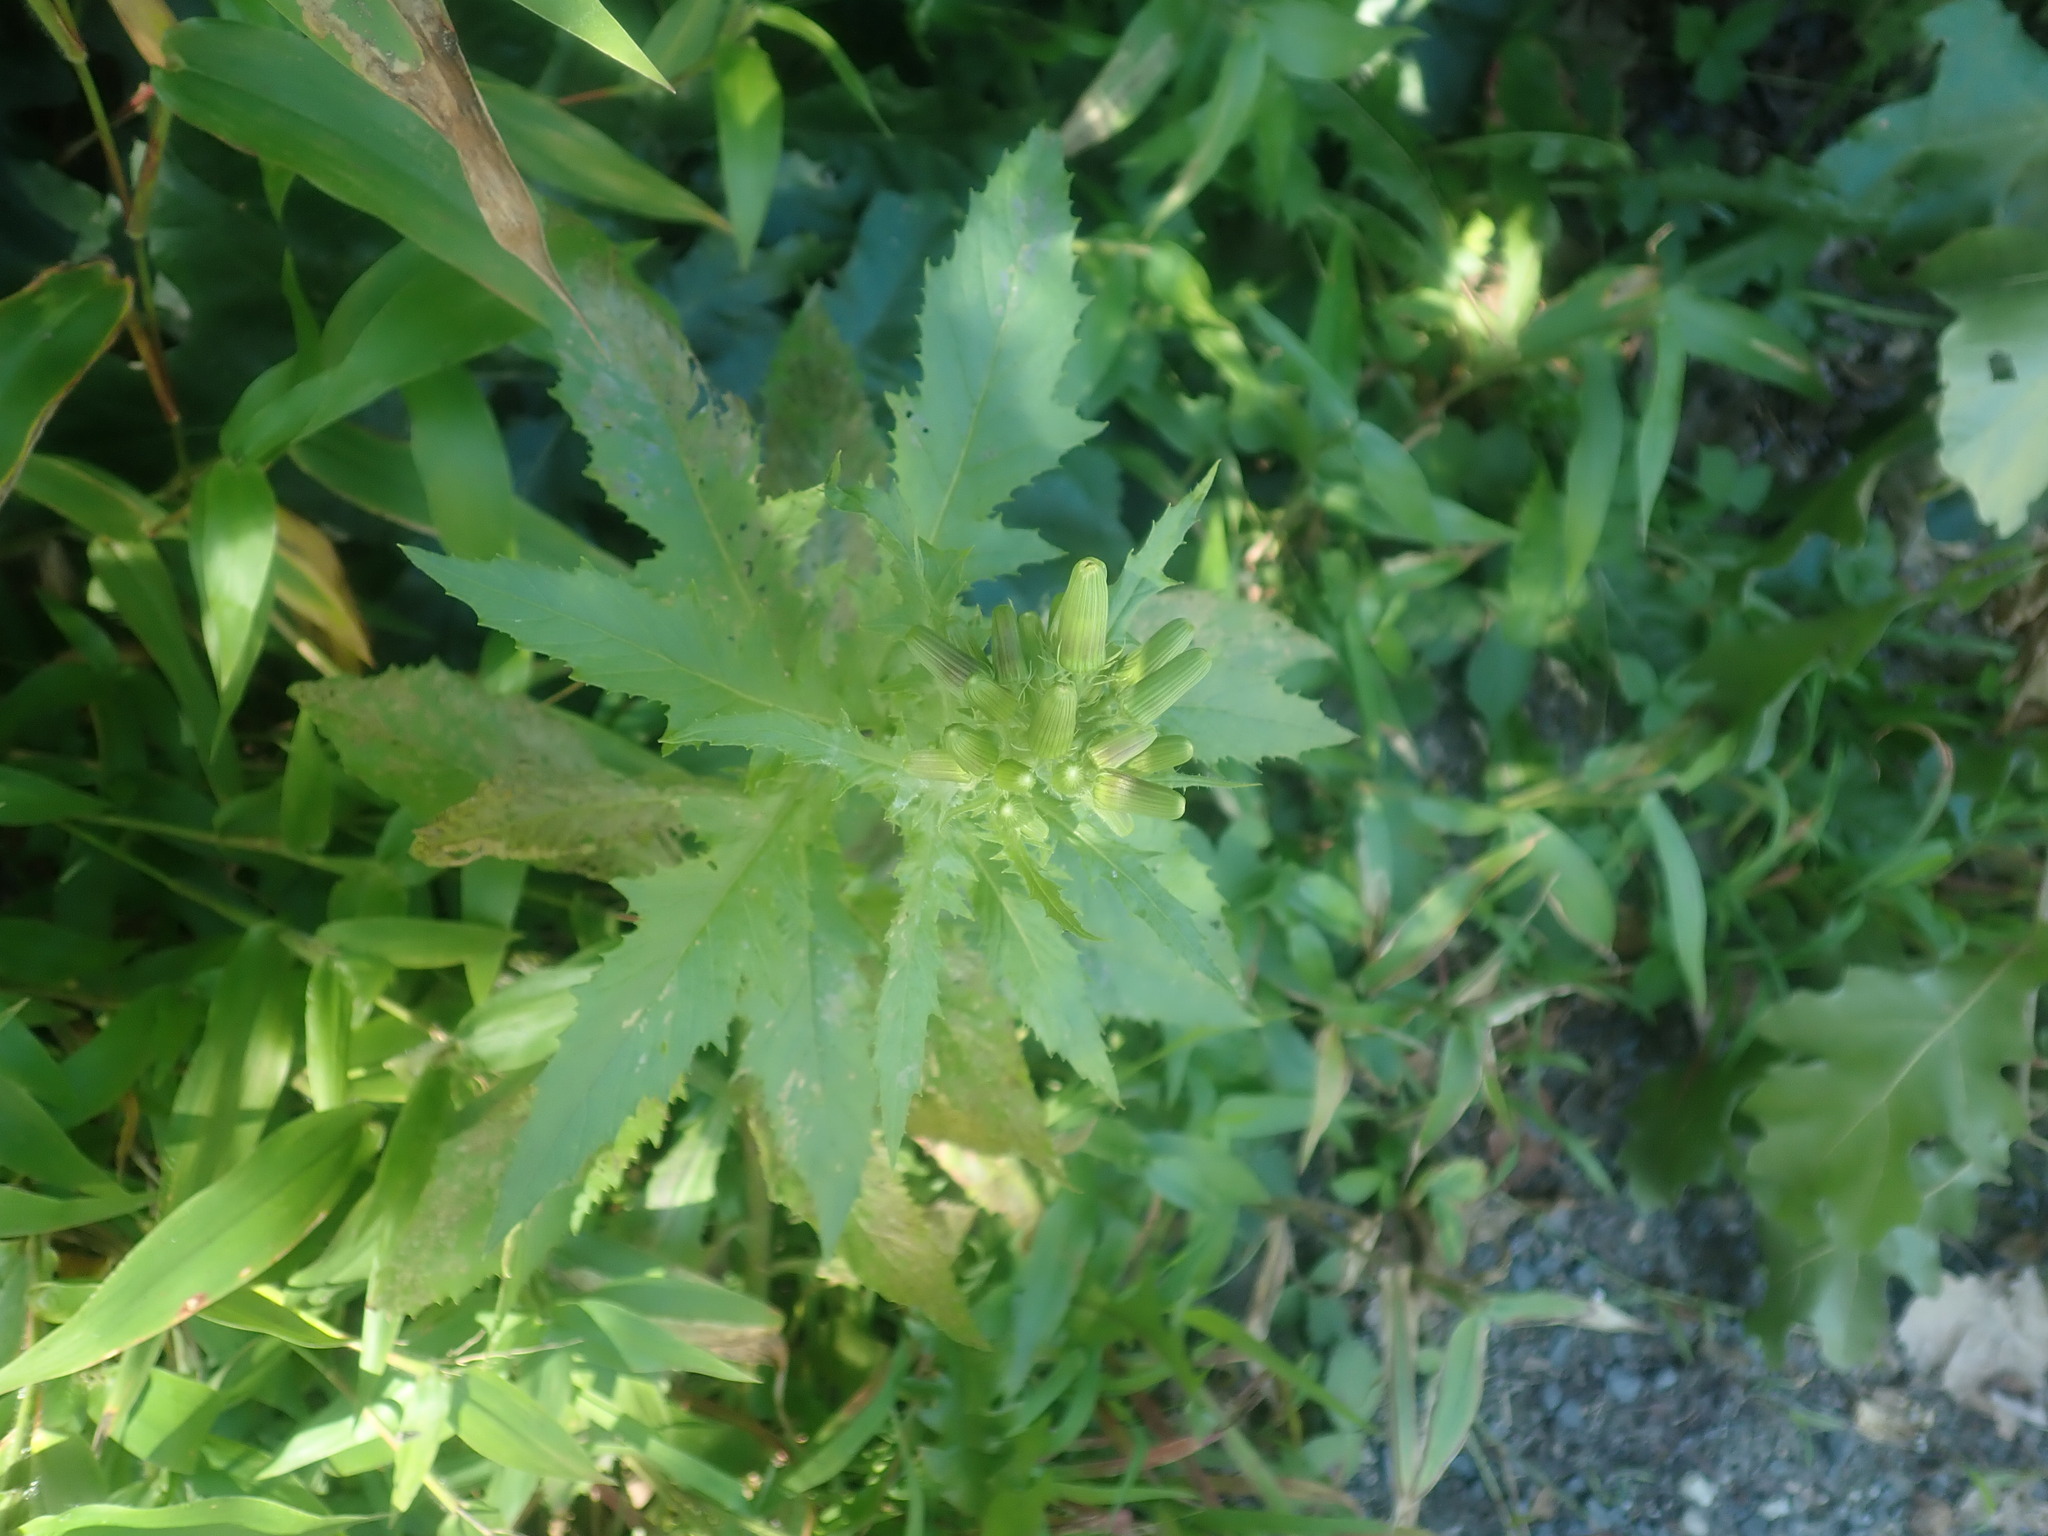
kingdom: Plantae
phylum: Tracheophyta
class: Magnoliopsida
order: Asterales
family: Asteraceae
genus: Erechtites
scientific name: Erechtites hieraciifolius
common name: American burnweed
